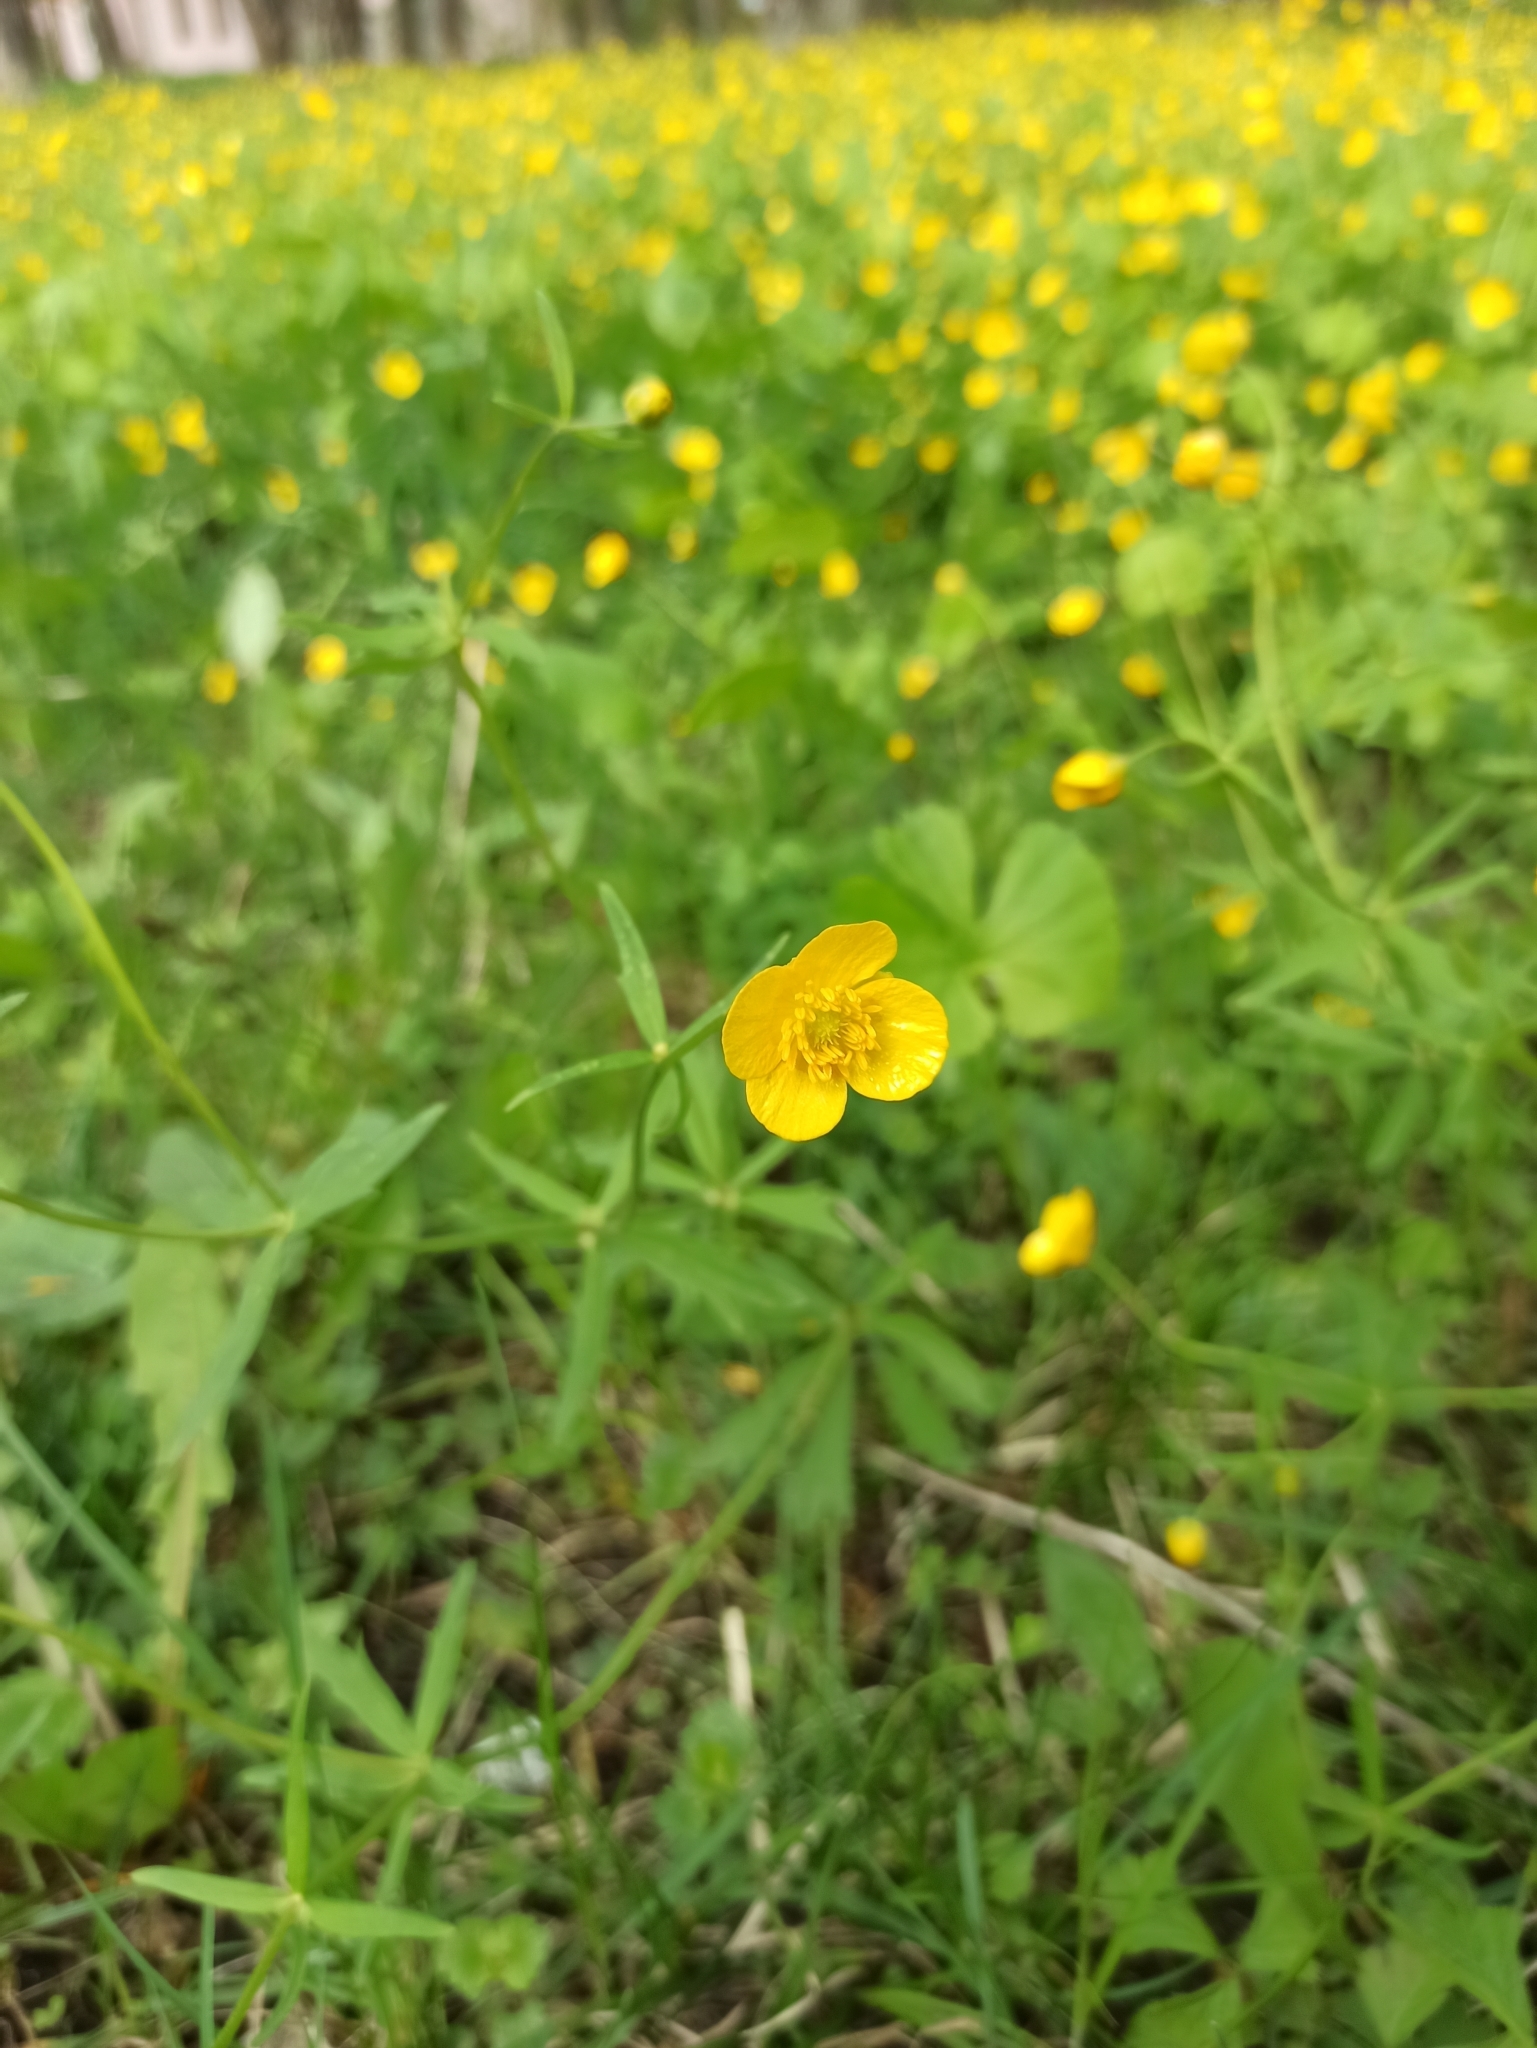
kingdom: Plantae
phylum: Tracheophyta
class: Magnoliopsida
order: Ranunculales
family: Ranunculaceae
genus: Ranunculus
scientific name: Ranunculus cassubicus
